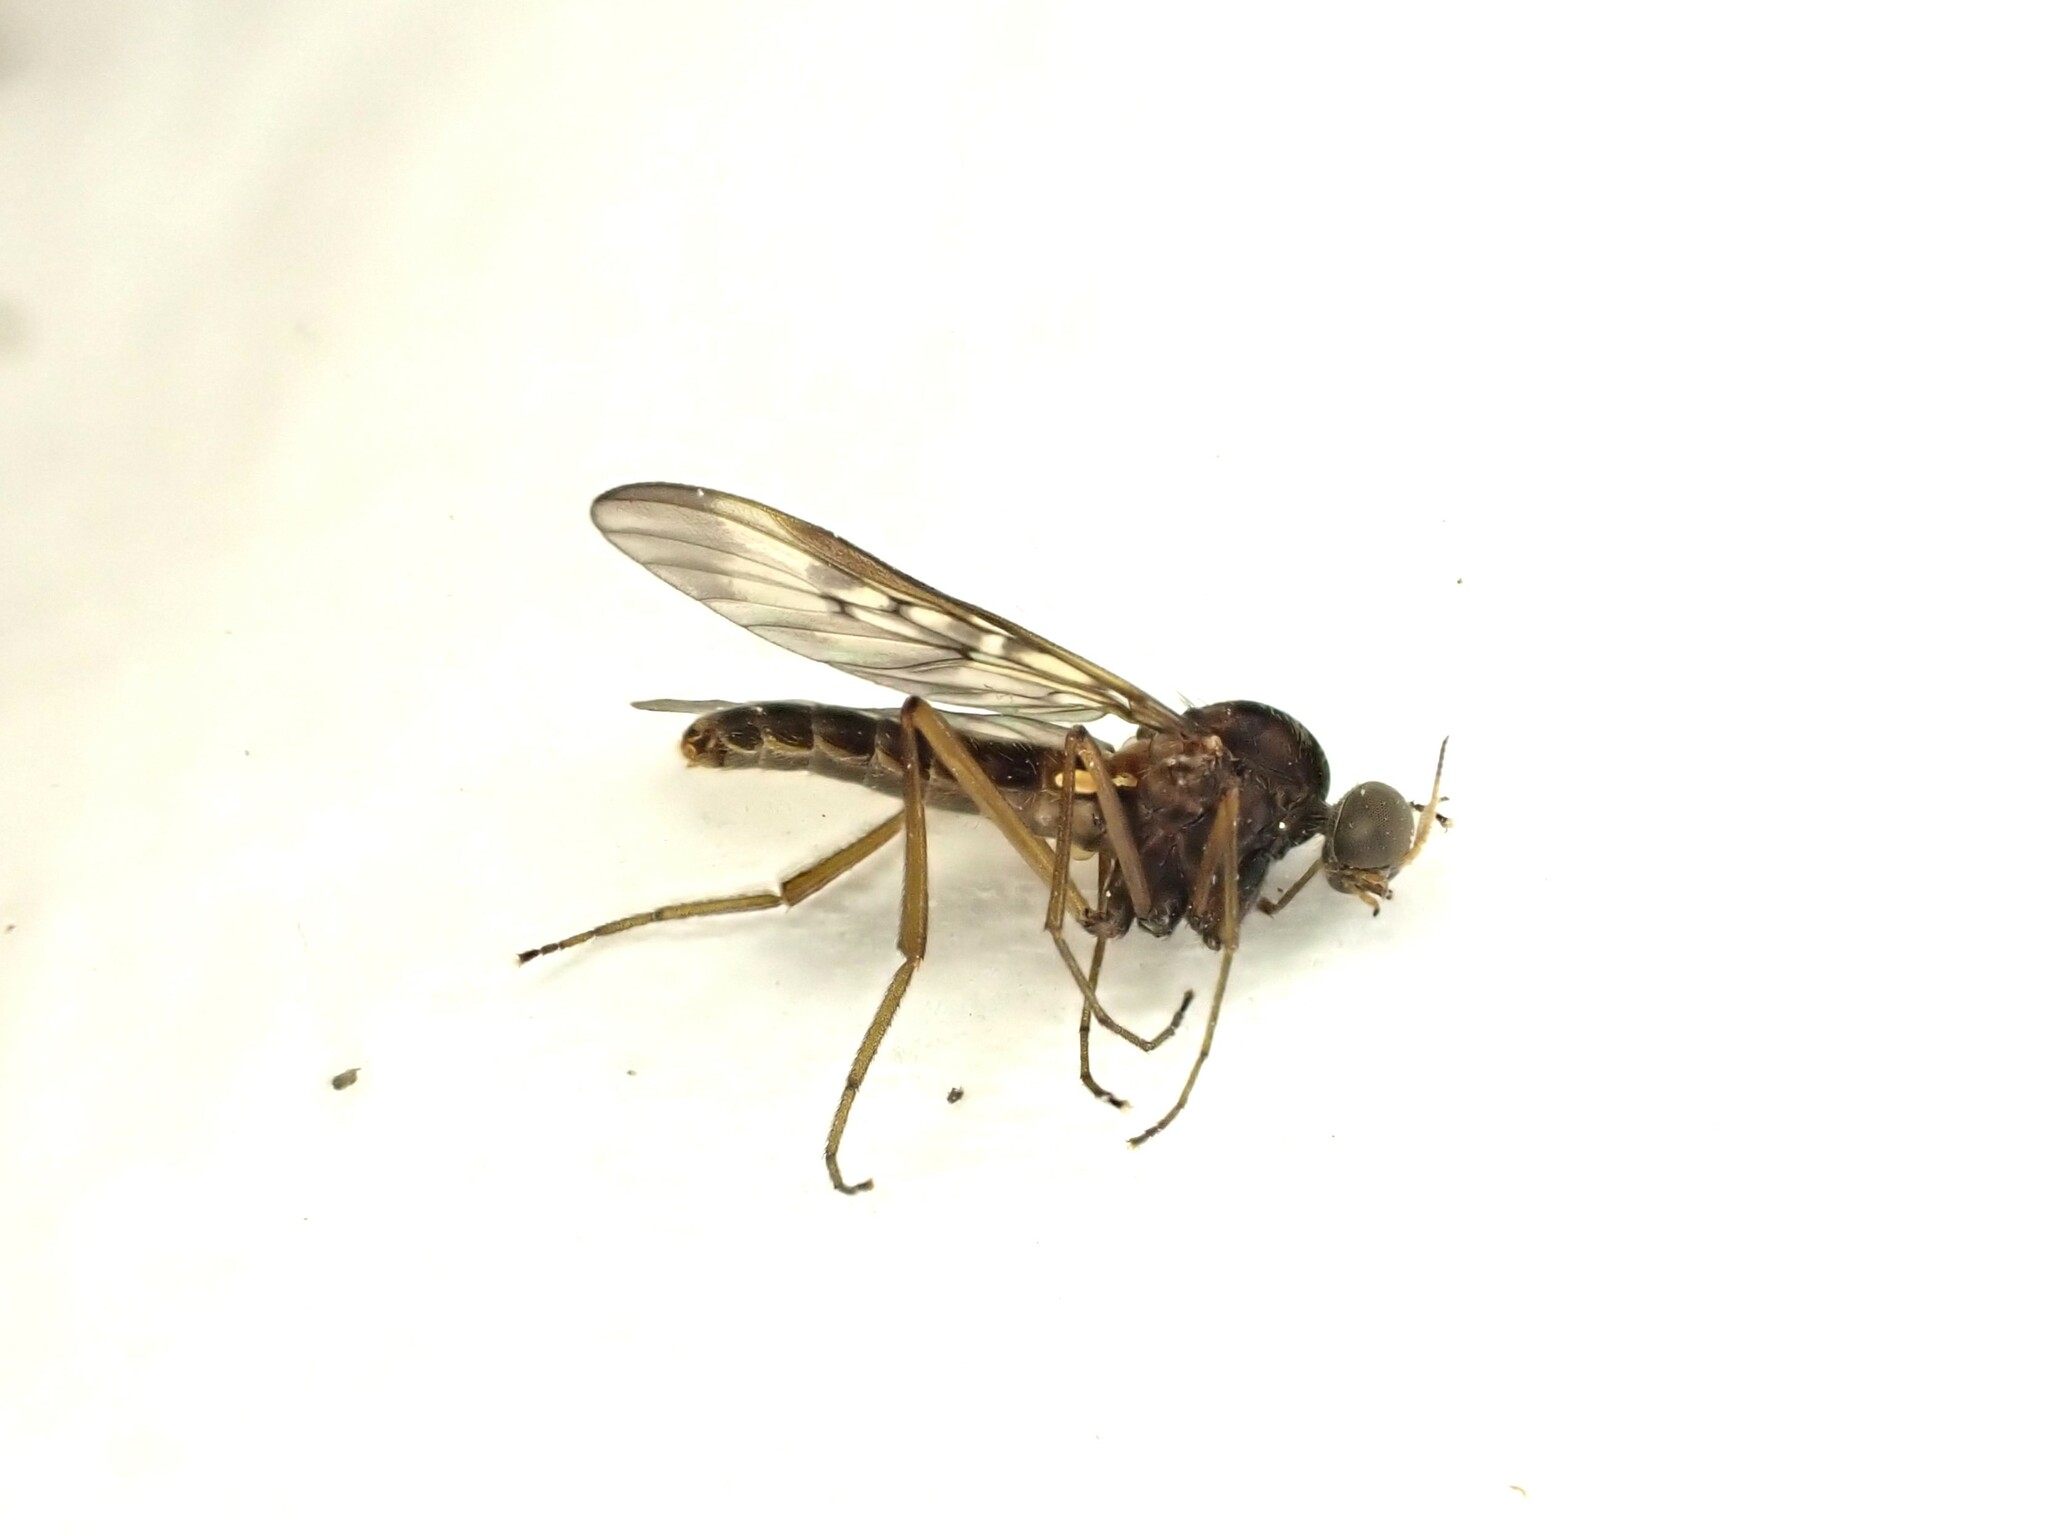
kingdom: Animalia
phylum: Arthropoda
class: Insecta
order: Diptera
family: Anisopodidae
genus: Sylvicola
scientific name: Sylvicola neozelandicus
